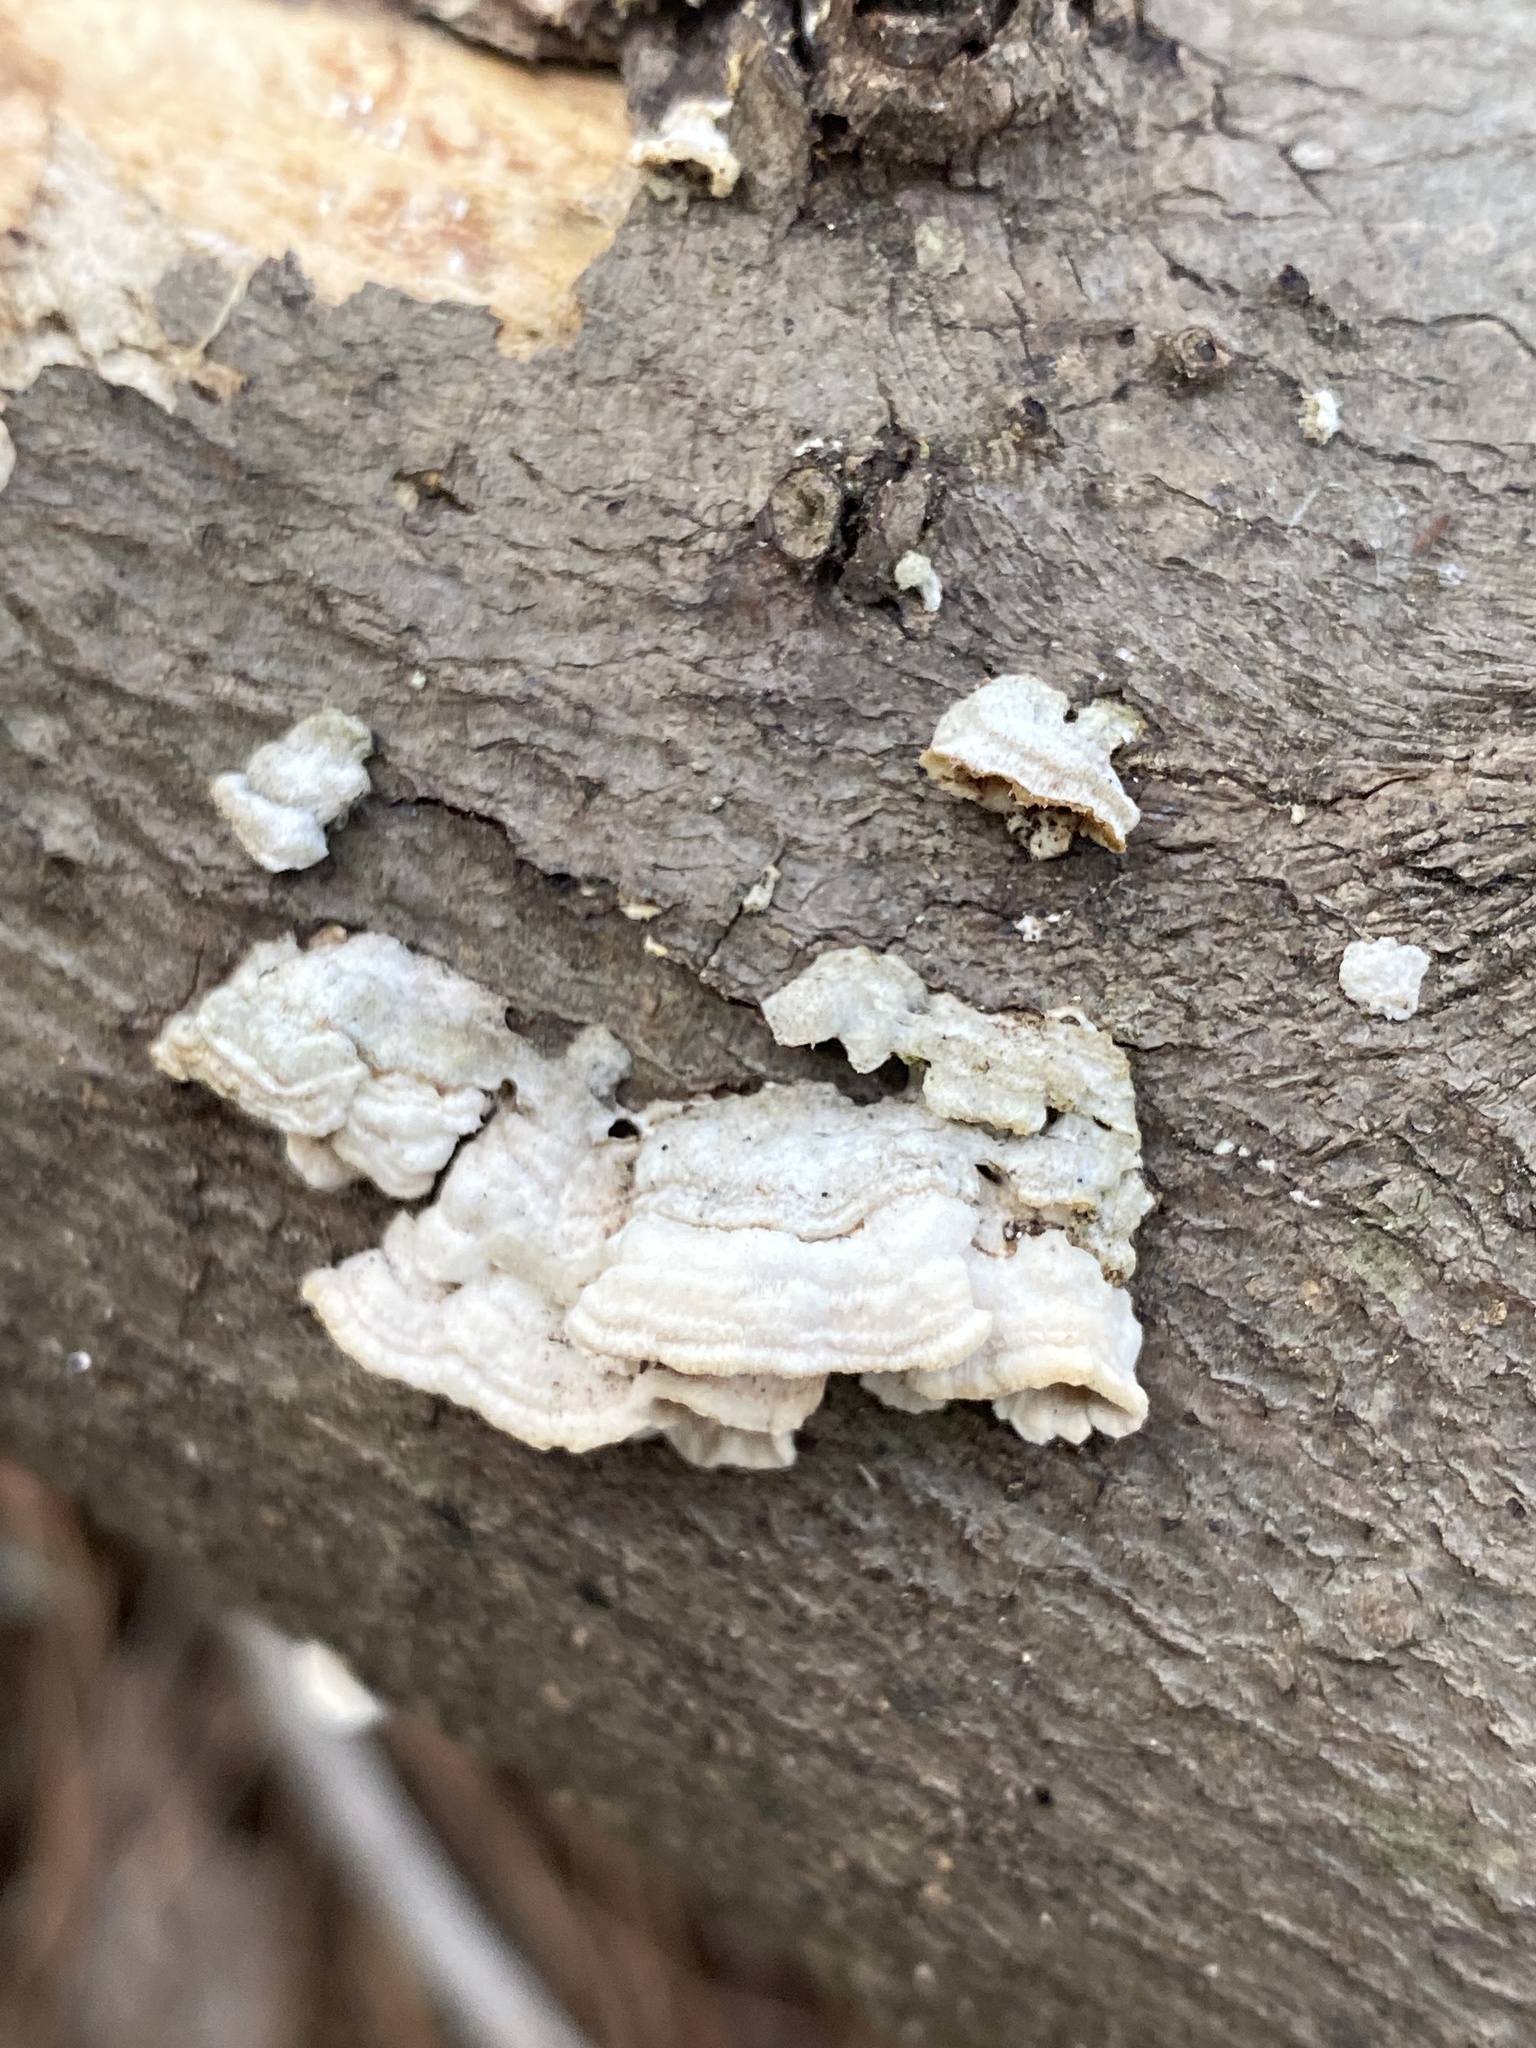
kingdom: Fungi
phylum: Basidiomycota
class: Agaricomycetes
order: Polyporales
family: Irpicaceae
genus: Irpex
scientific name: Irpex lacteus
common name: Milk-white toothed polypore
